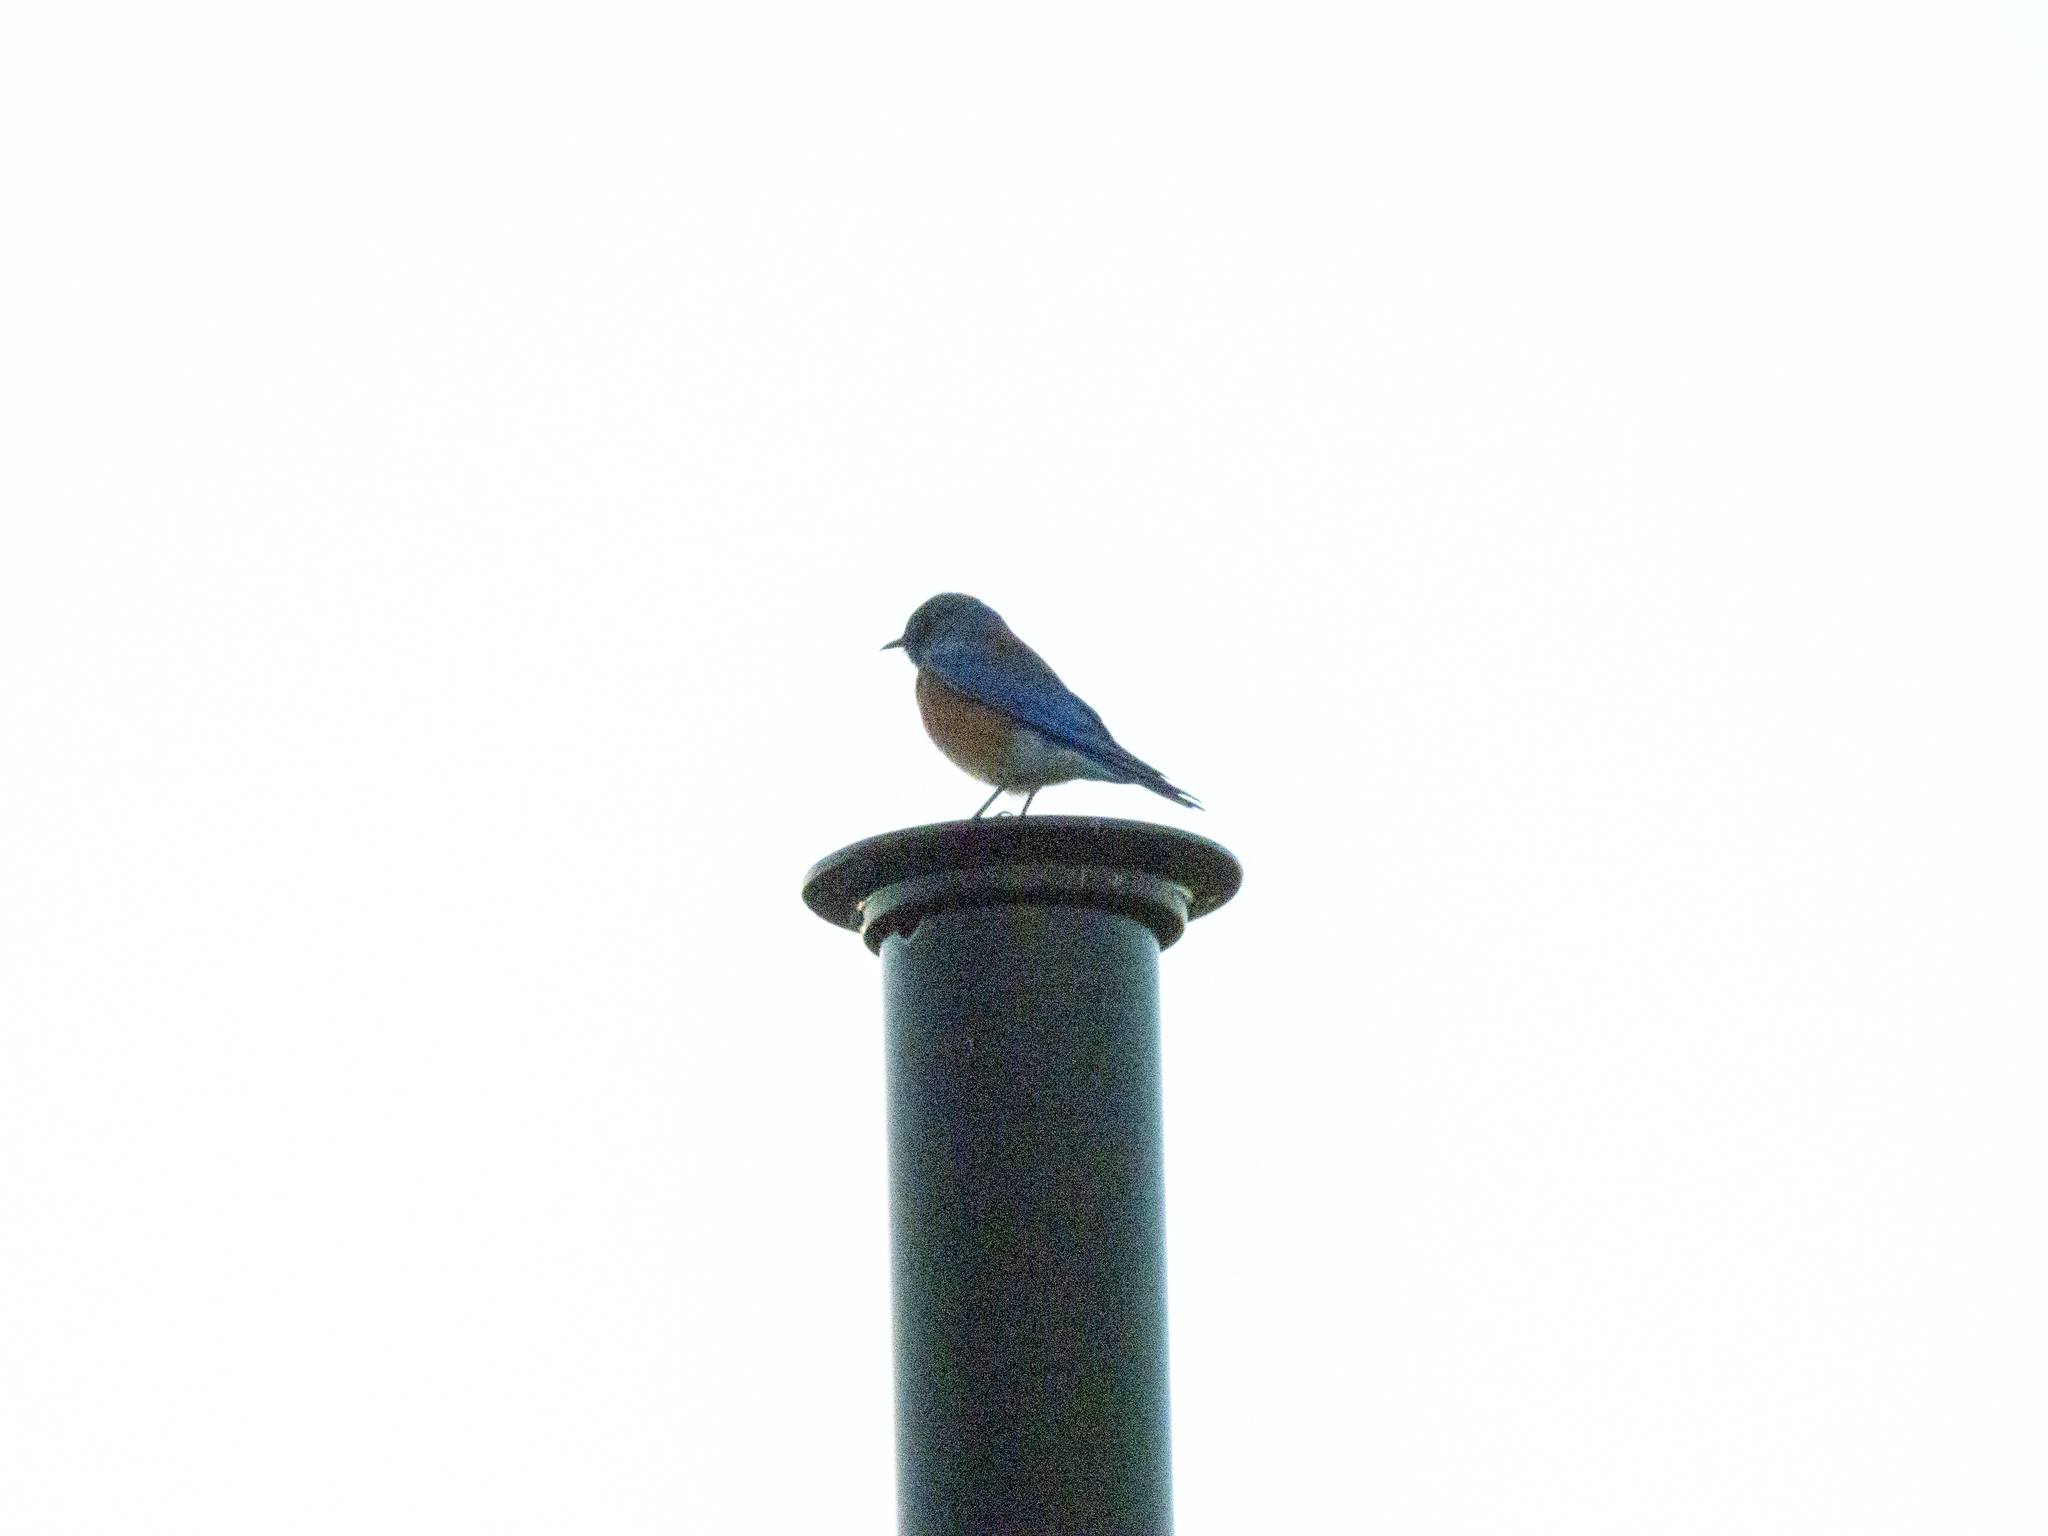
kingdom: Animalia
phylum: Chordata
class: Aves
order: Passeriformes
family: Turdidae
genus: Sialia
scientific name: Sialia mexicana
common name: Western bluebird
